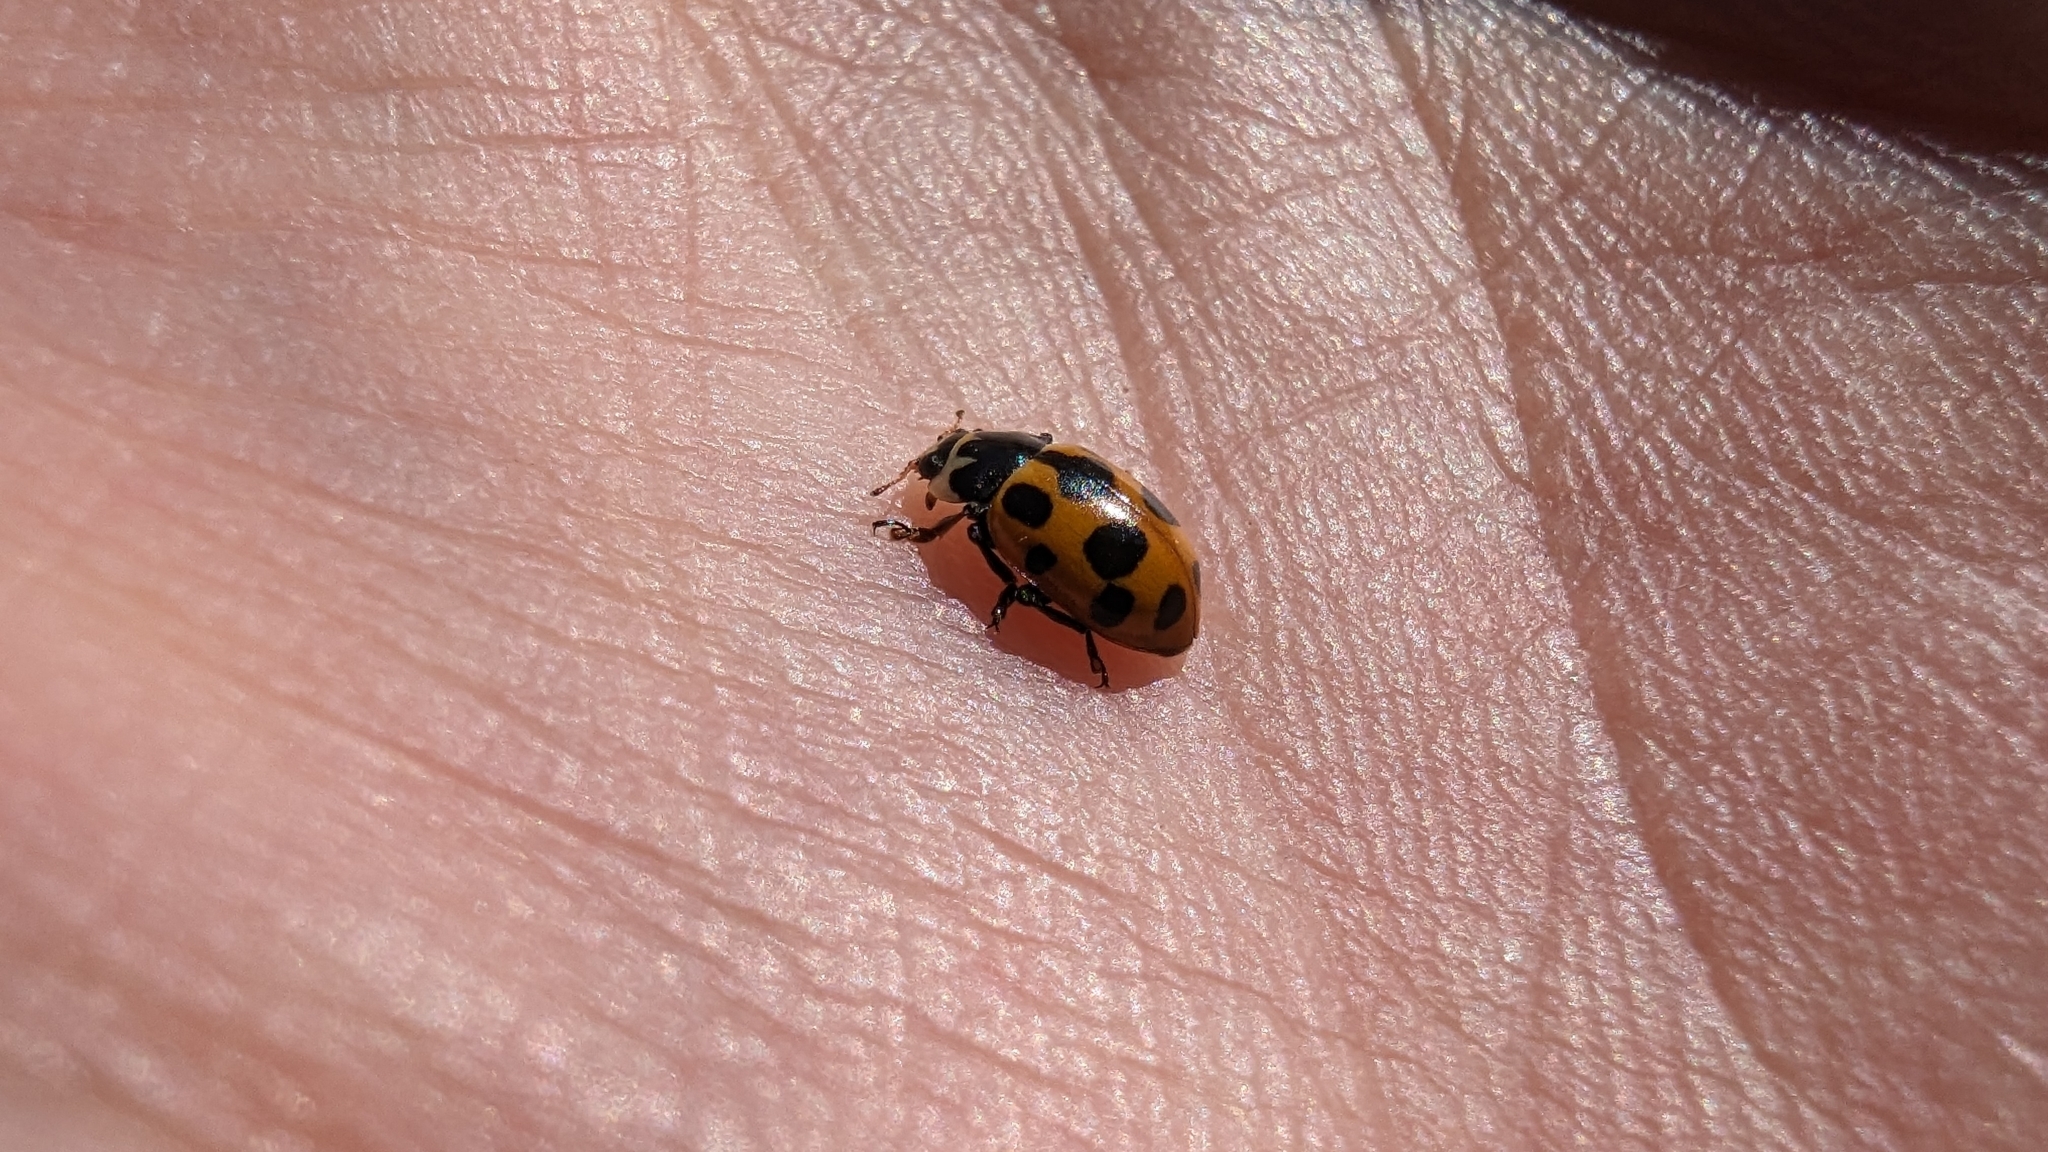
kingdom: Animalia
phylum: Arthropoda
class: Insecta
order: Coleoptera
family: Coccinellidae
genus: Ceratomegilla
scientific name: Ceratomegilla notata
